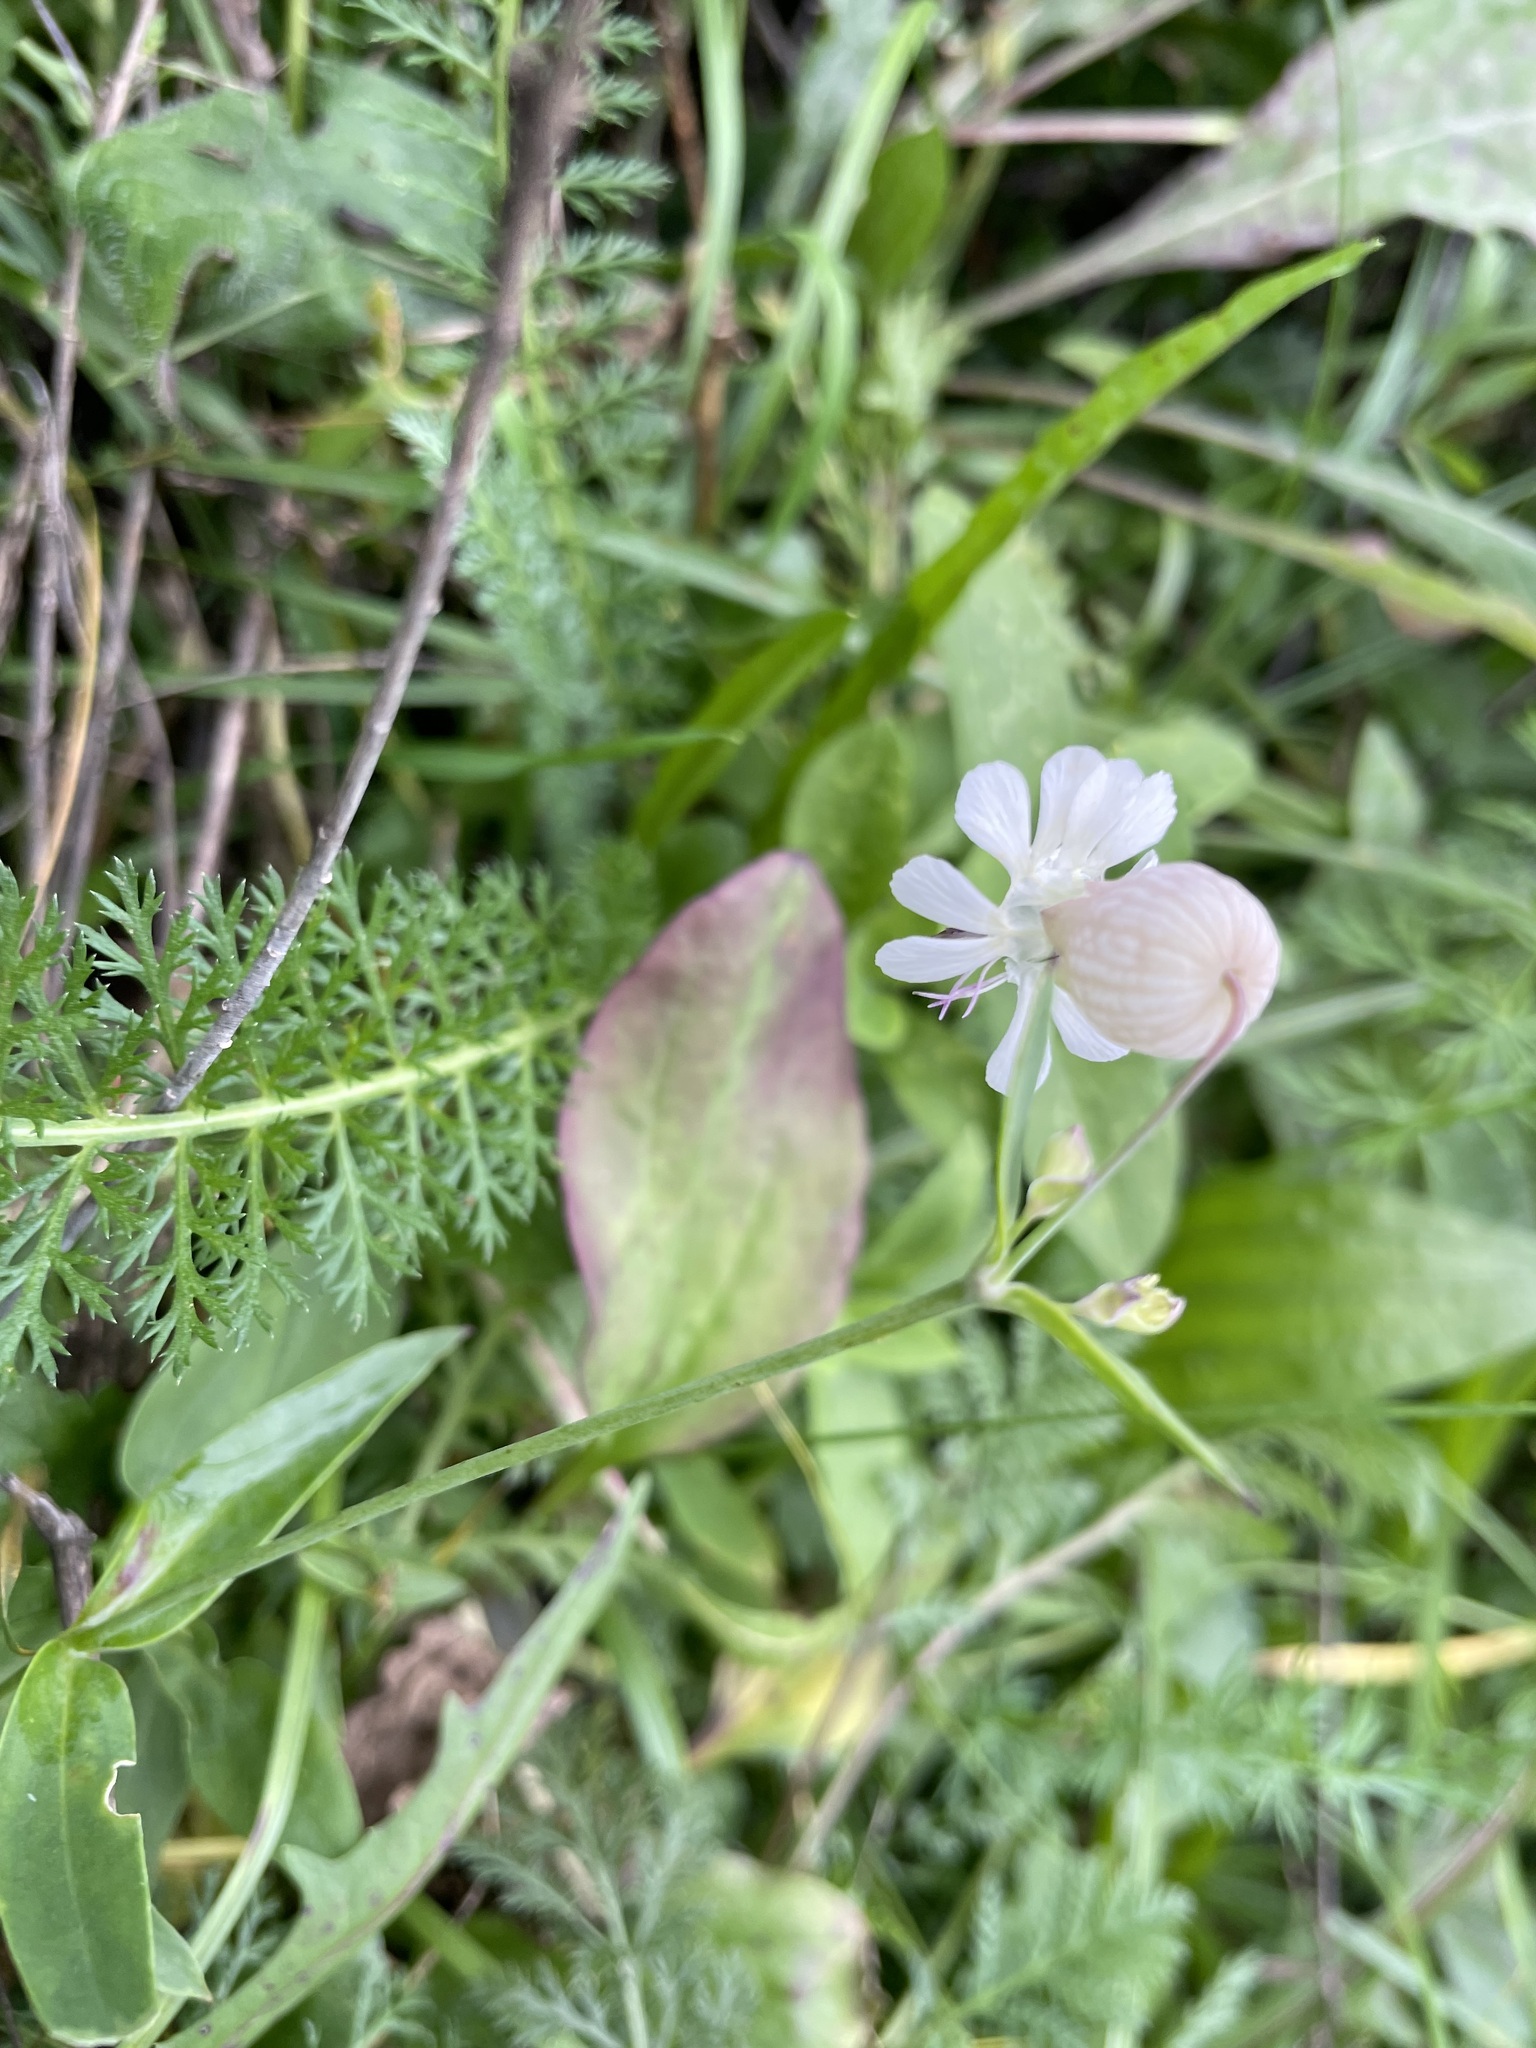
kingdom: Plantae
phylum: Tracheophyta
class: Magnoliopsida
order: Caryophyllales
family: Caryophyllaceae
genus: Silene
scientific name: Silene vulgaris
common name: Bladder campion
